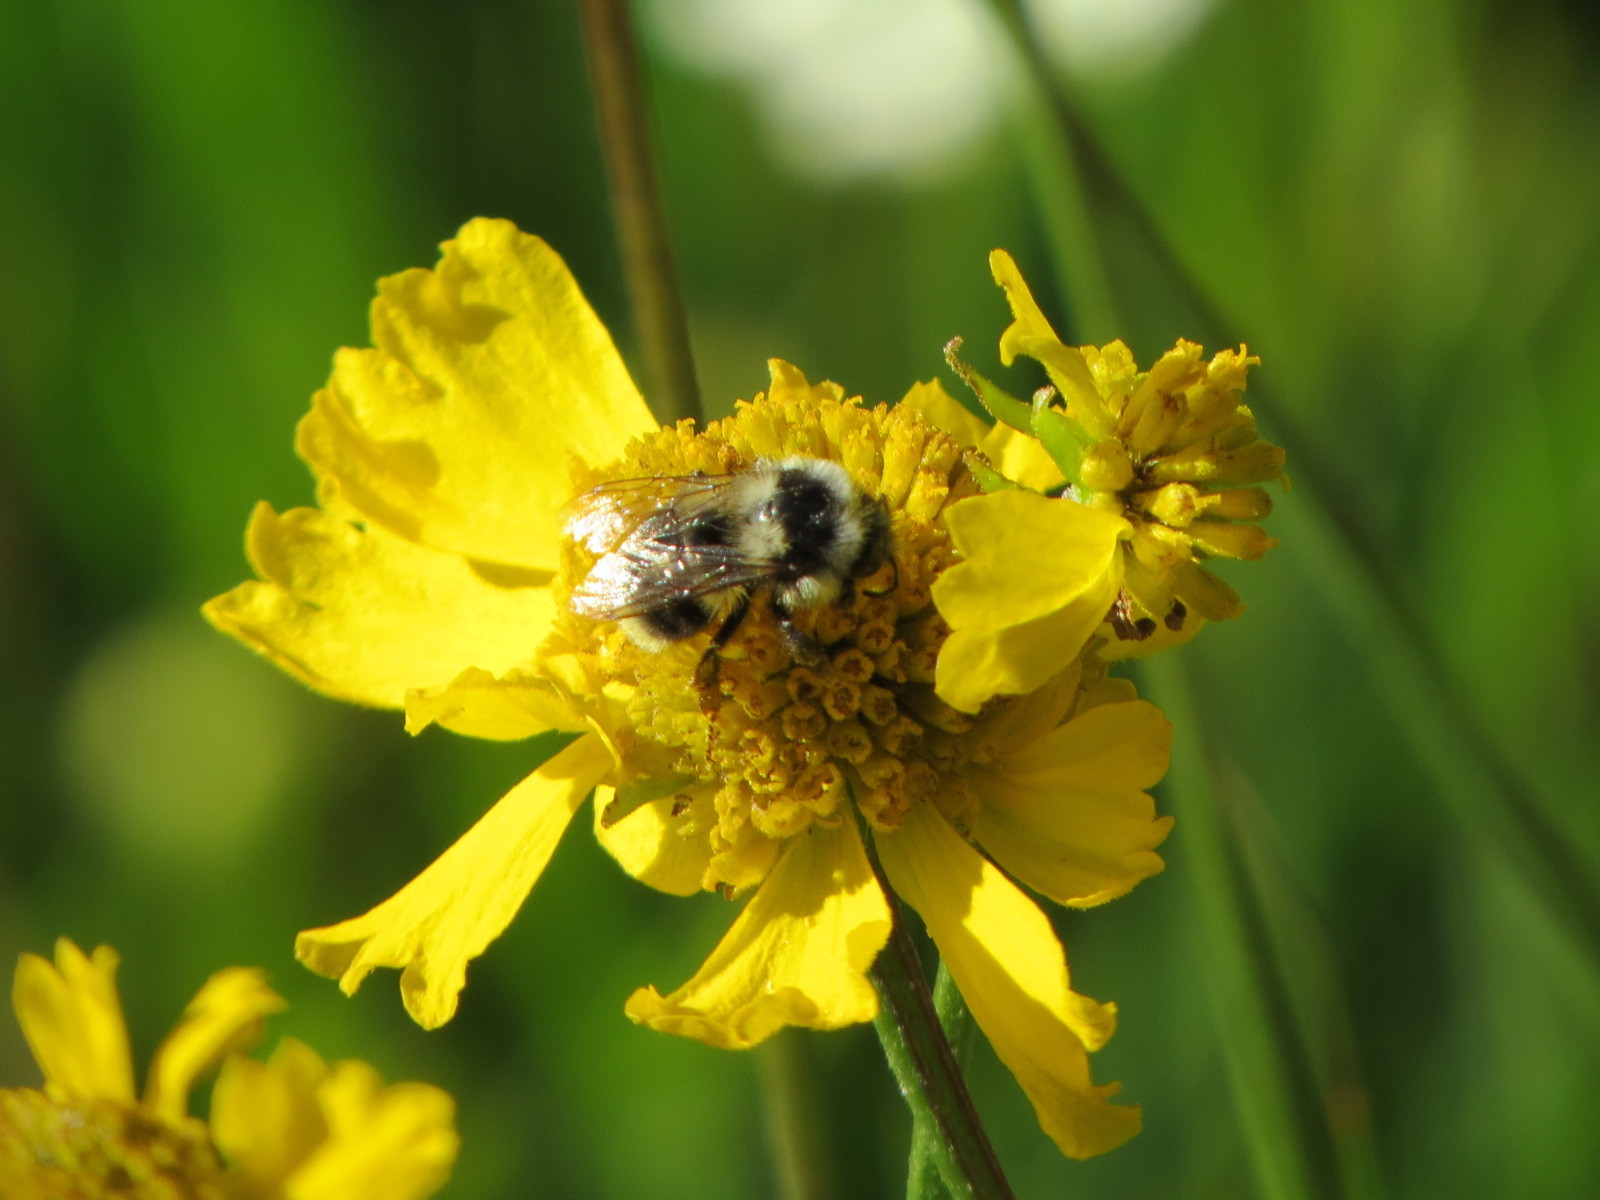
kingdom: Animalia
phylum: Arthropoda
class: Insecta
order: Hymenoptera
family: Apidae
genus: Bombus
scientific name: Bombus vancouverensis
